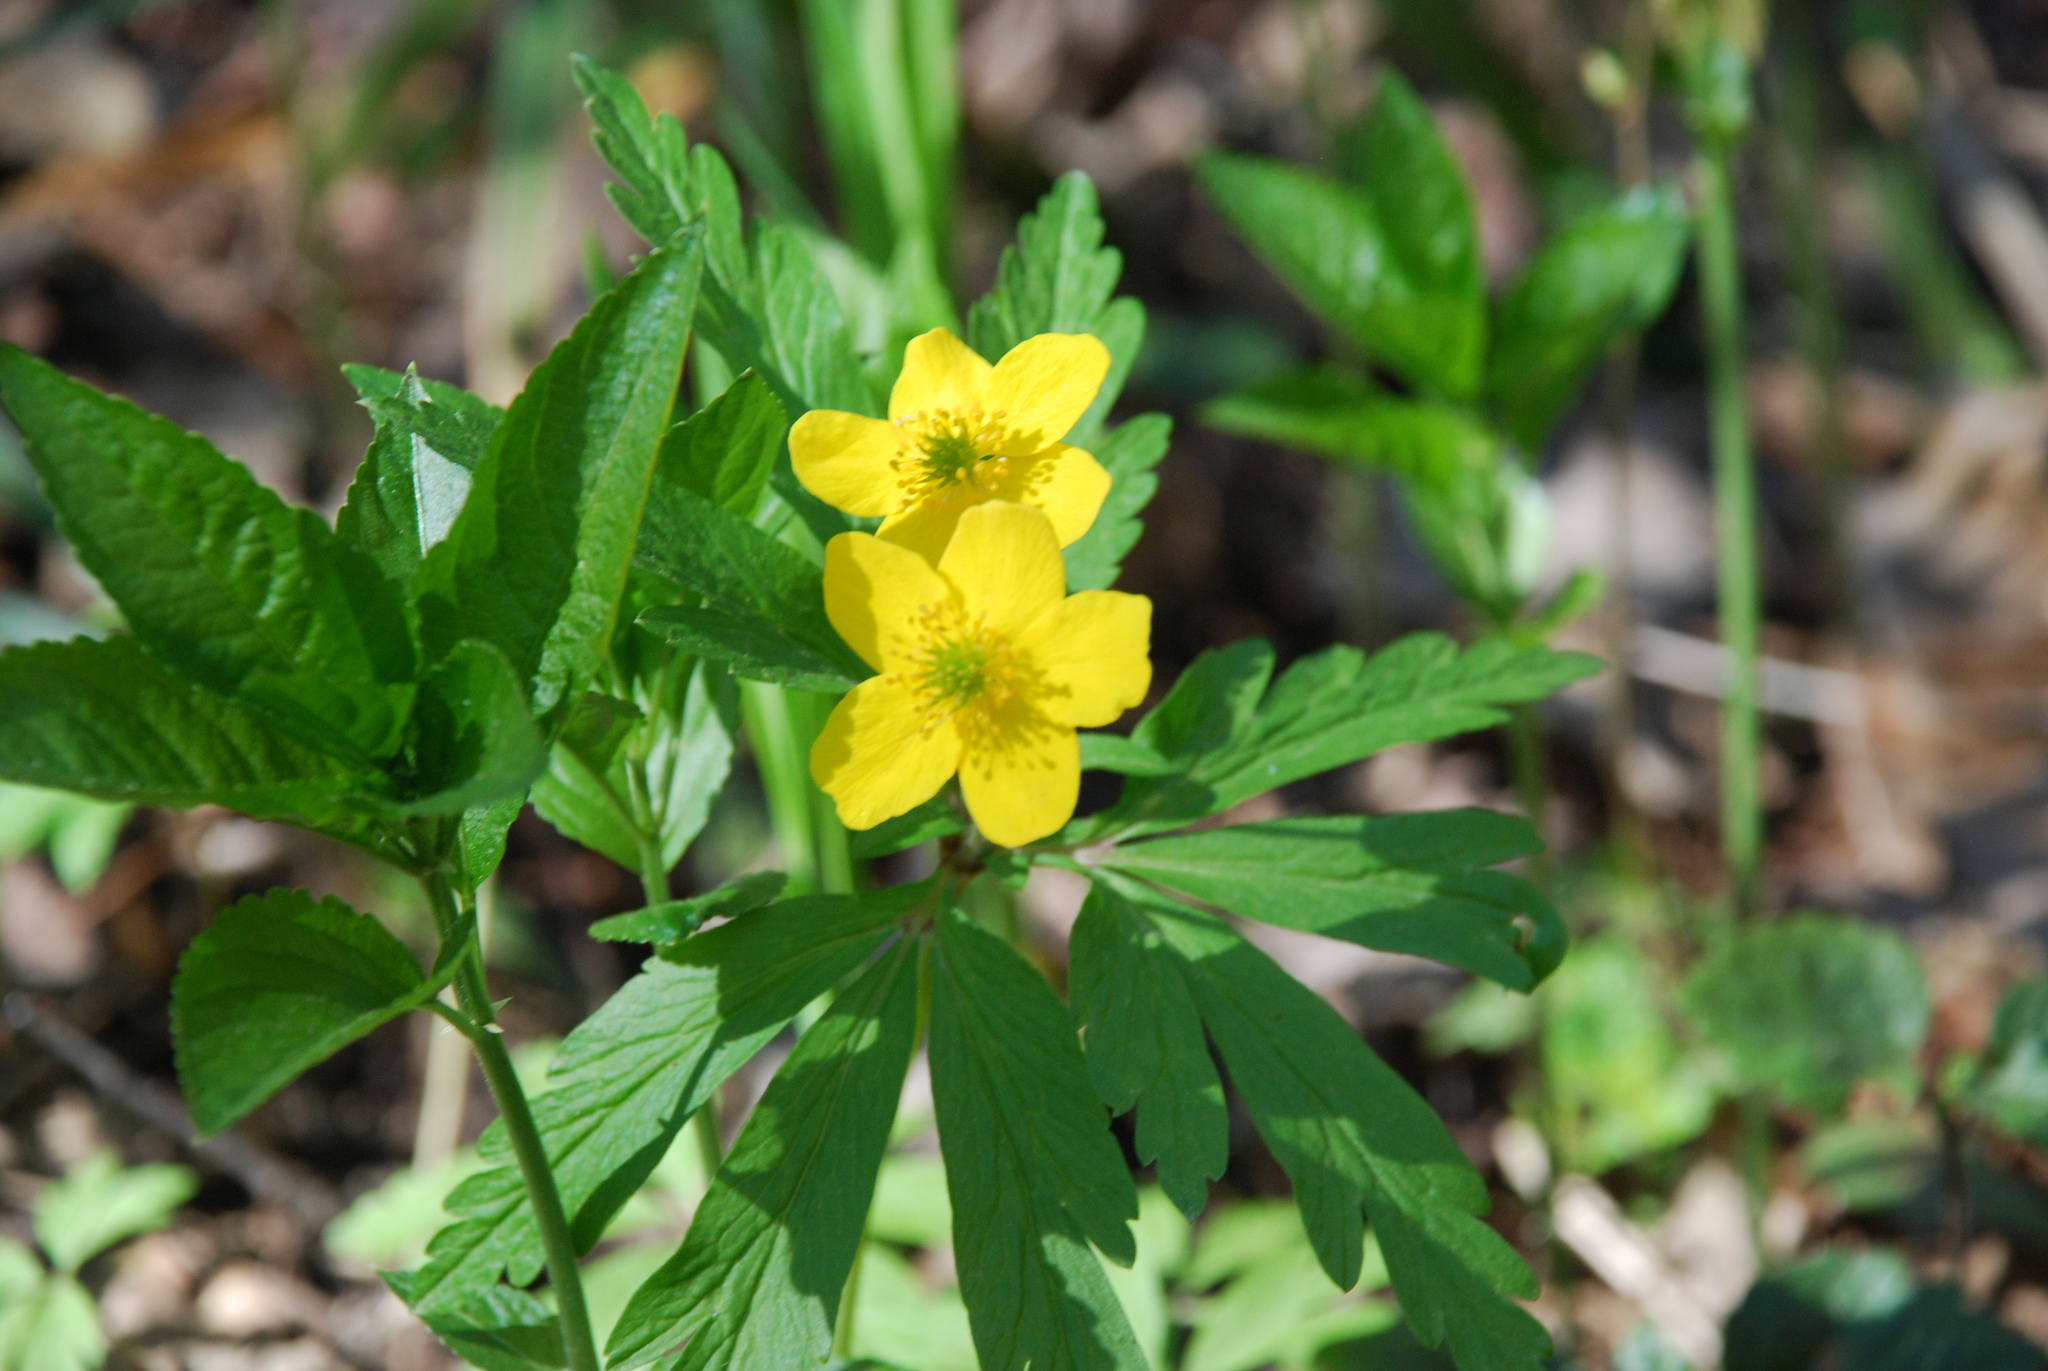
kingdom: Plantae
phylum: Tracheophyta
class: Magnoliopsida
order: Ranunculales
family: Ranunculaceae
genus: Anemone
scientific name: Anemone ranunculoides
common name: Yellow anemone
